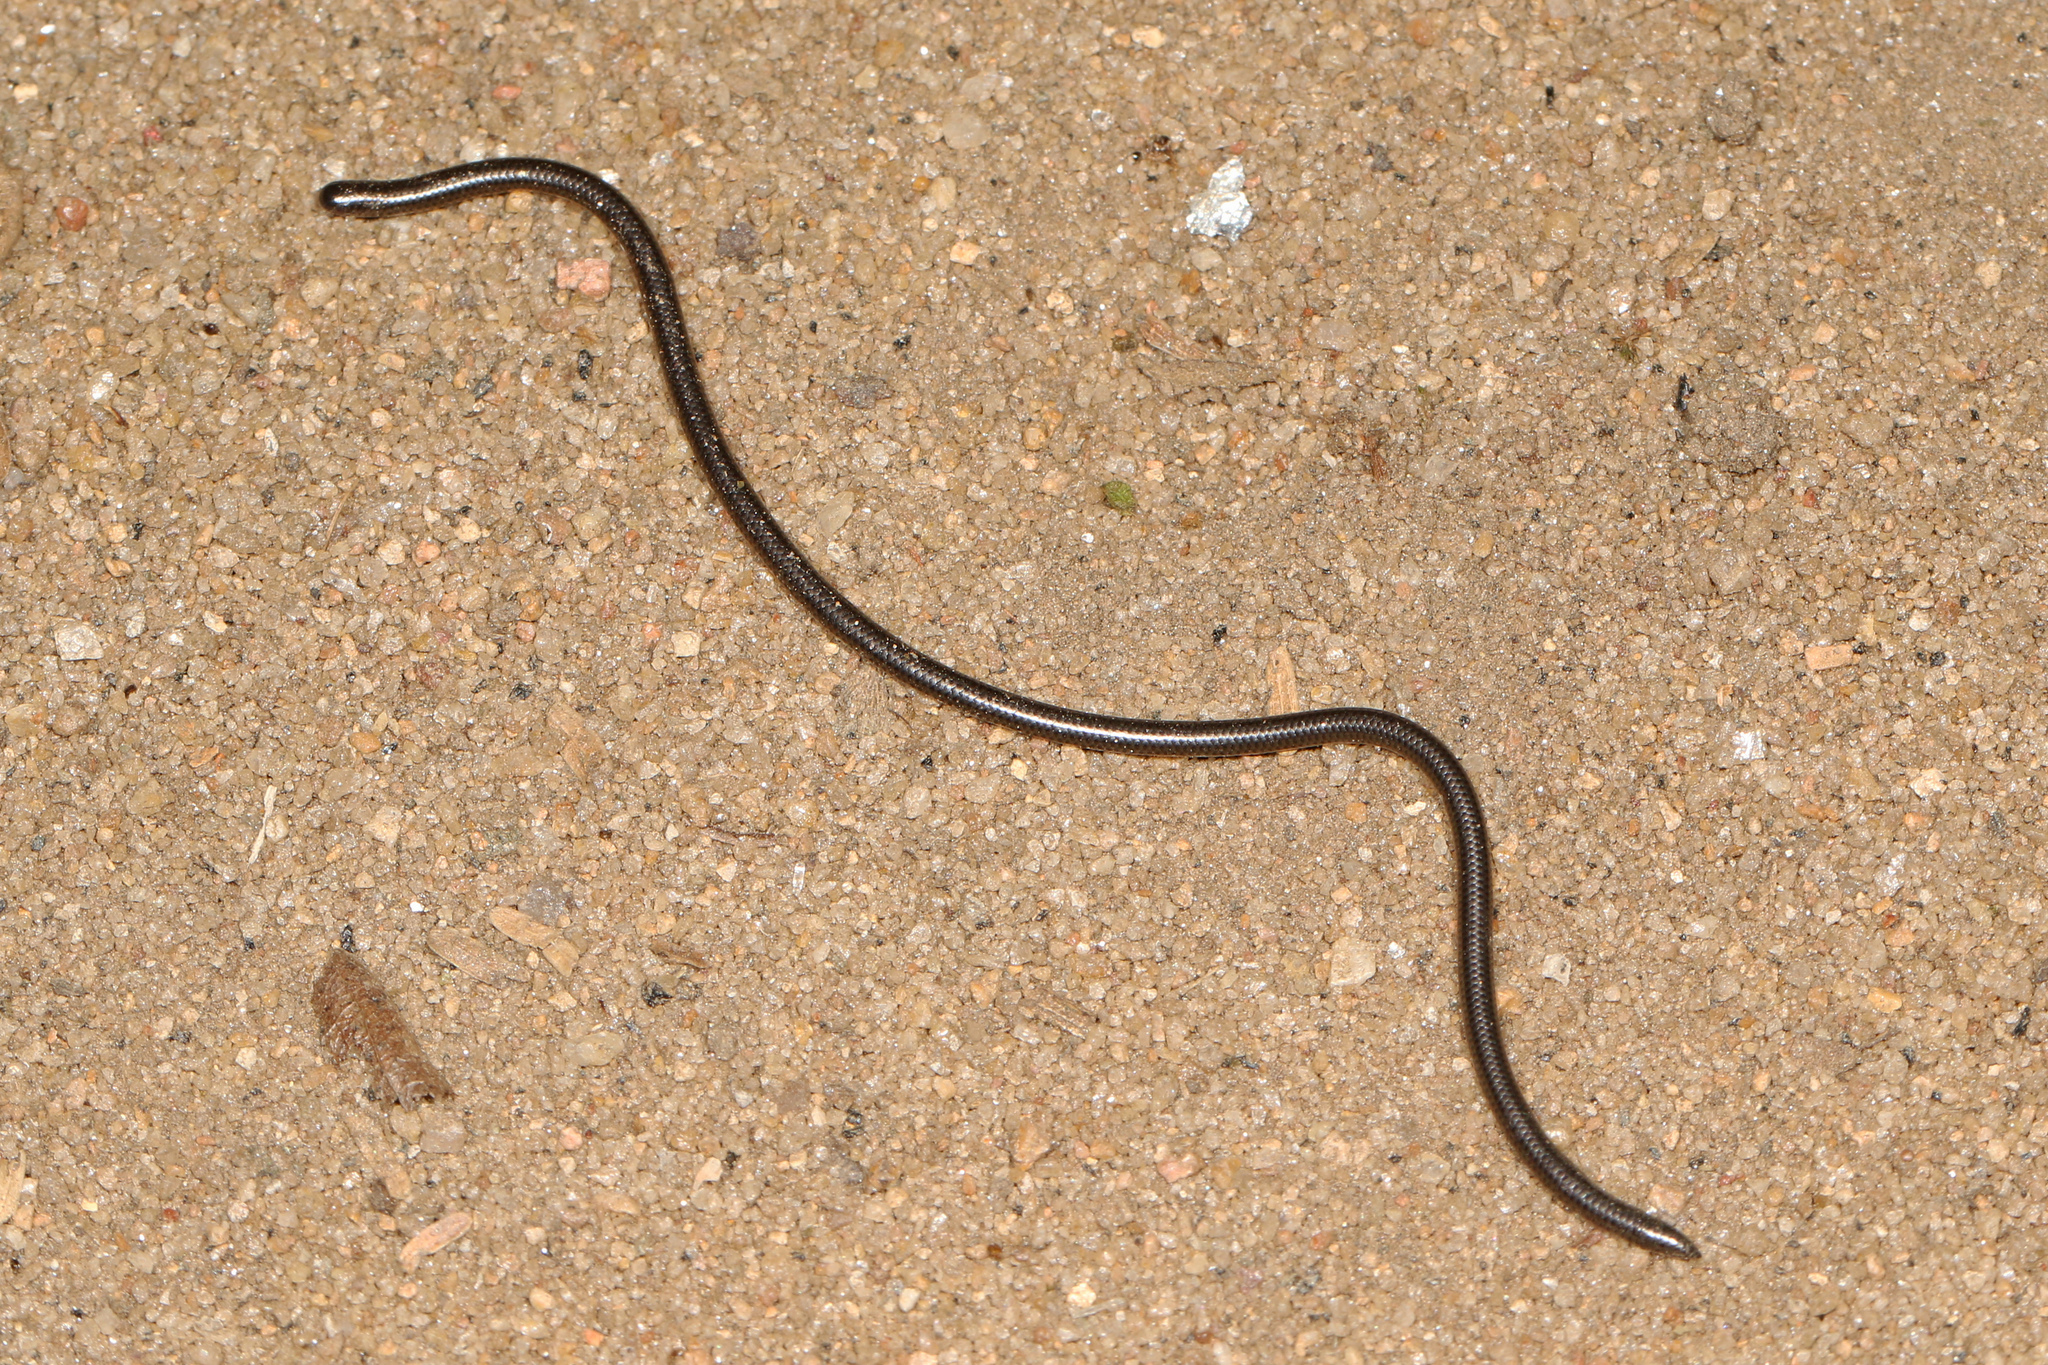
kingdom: Animalia
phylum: Chordata
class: Squamata
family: Leptotyphlopidae
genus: Leptotyphlops
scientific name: Leptotyphlops scutifrons
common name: Peter's thread snake
